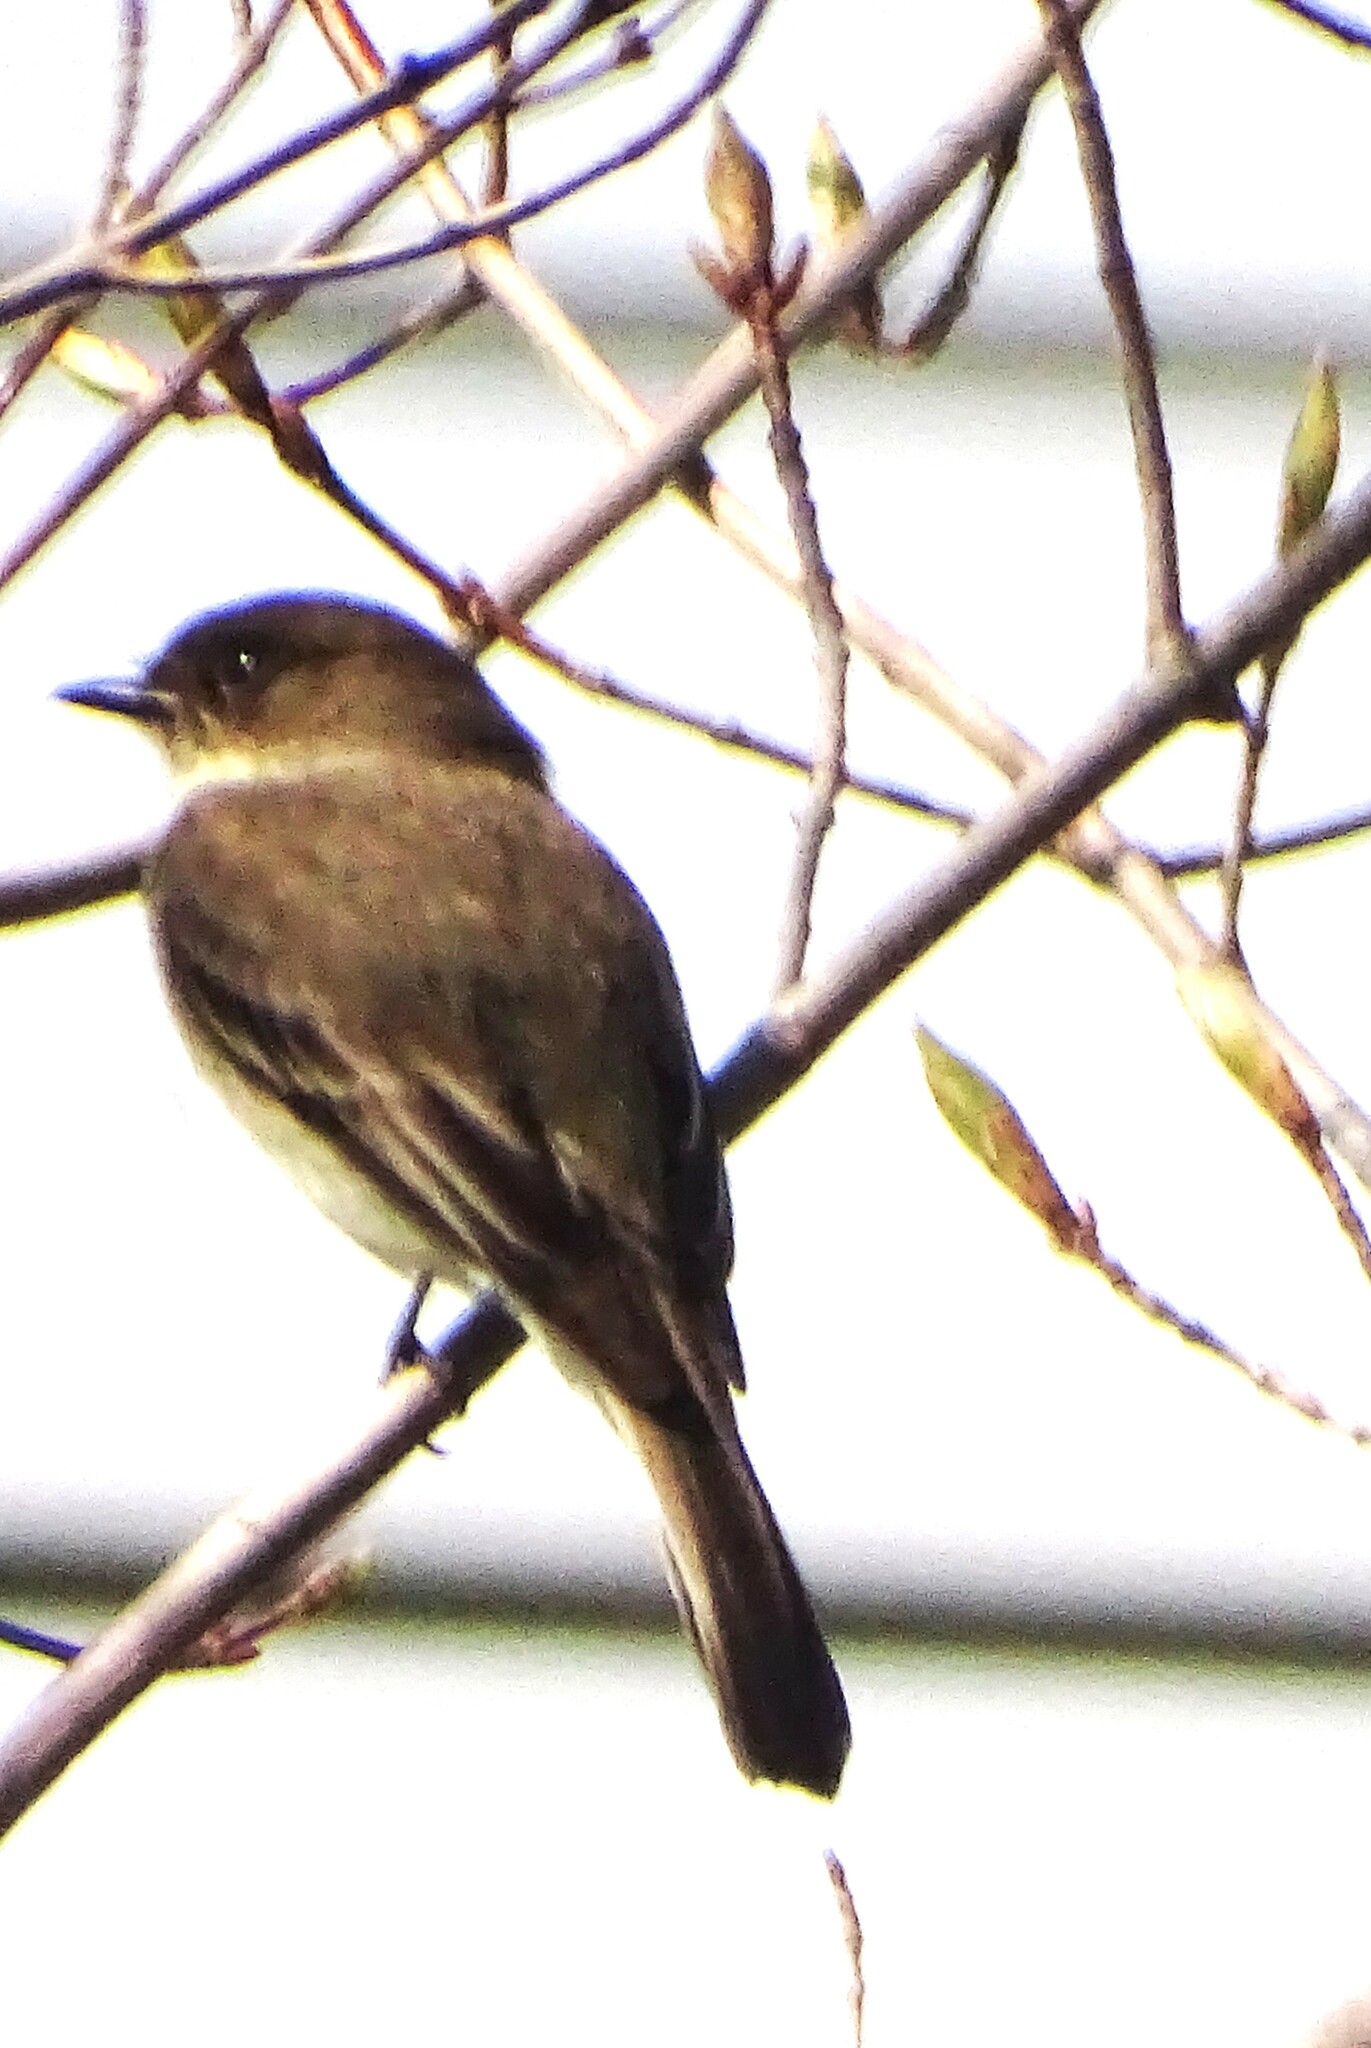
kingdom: Animalia
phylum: Chordata
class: Aves
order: Passeriformes
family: Tyrannidae
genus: Sayornis
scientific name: Sayornis phoebe
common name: Eastern phoebe
